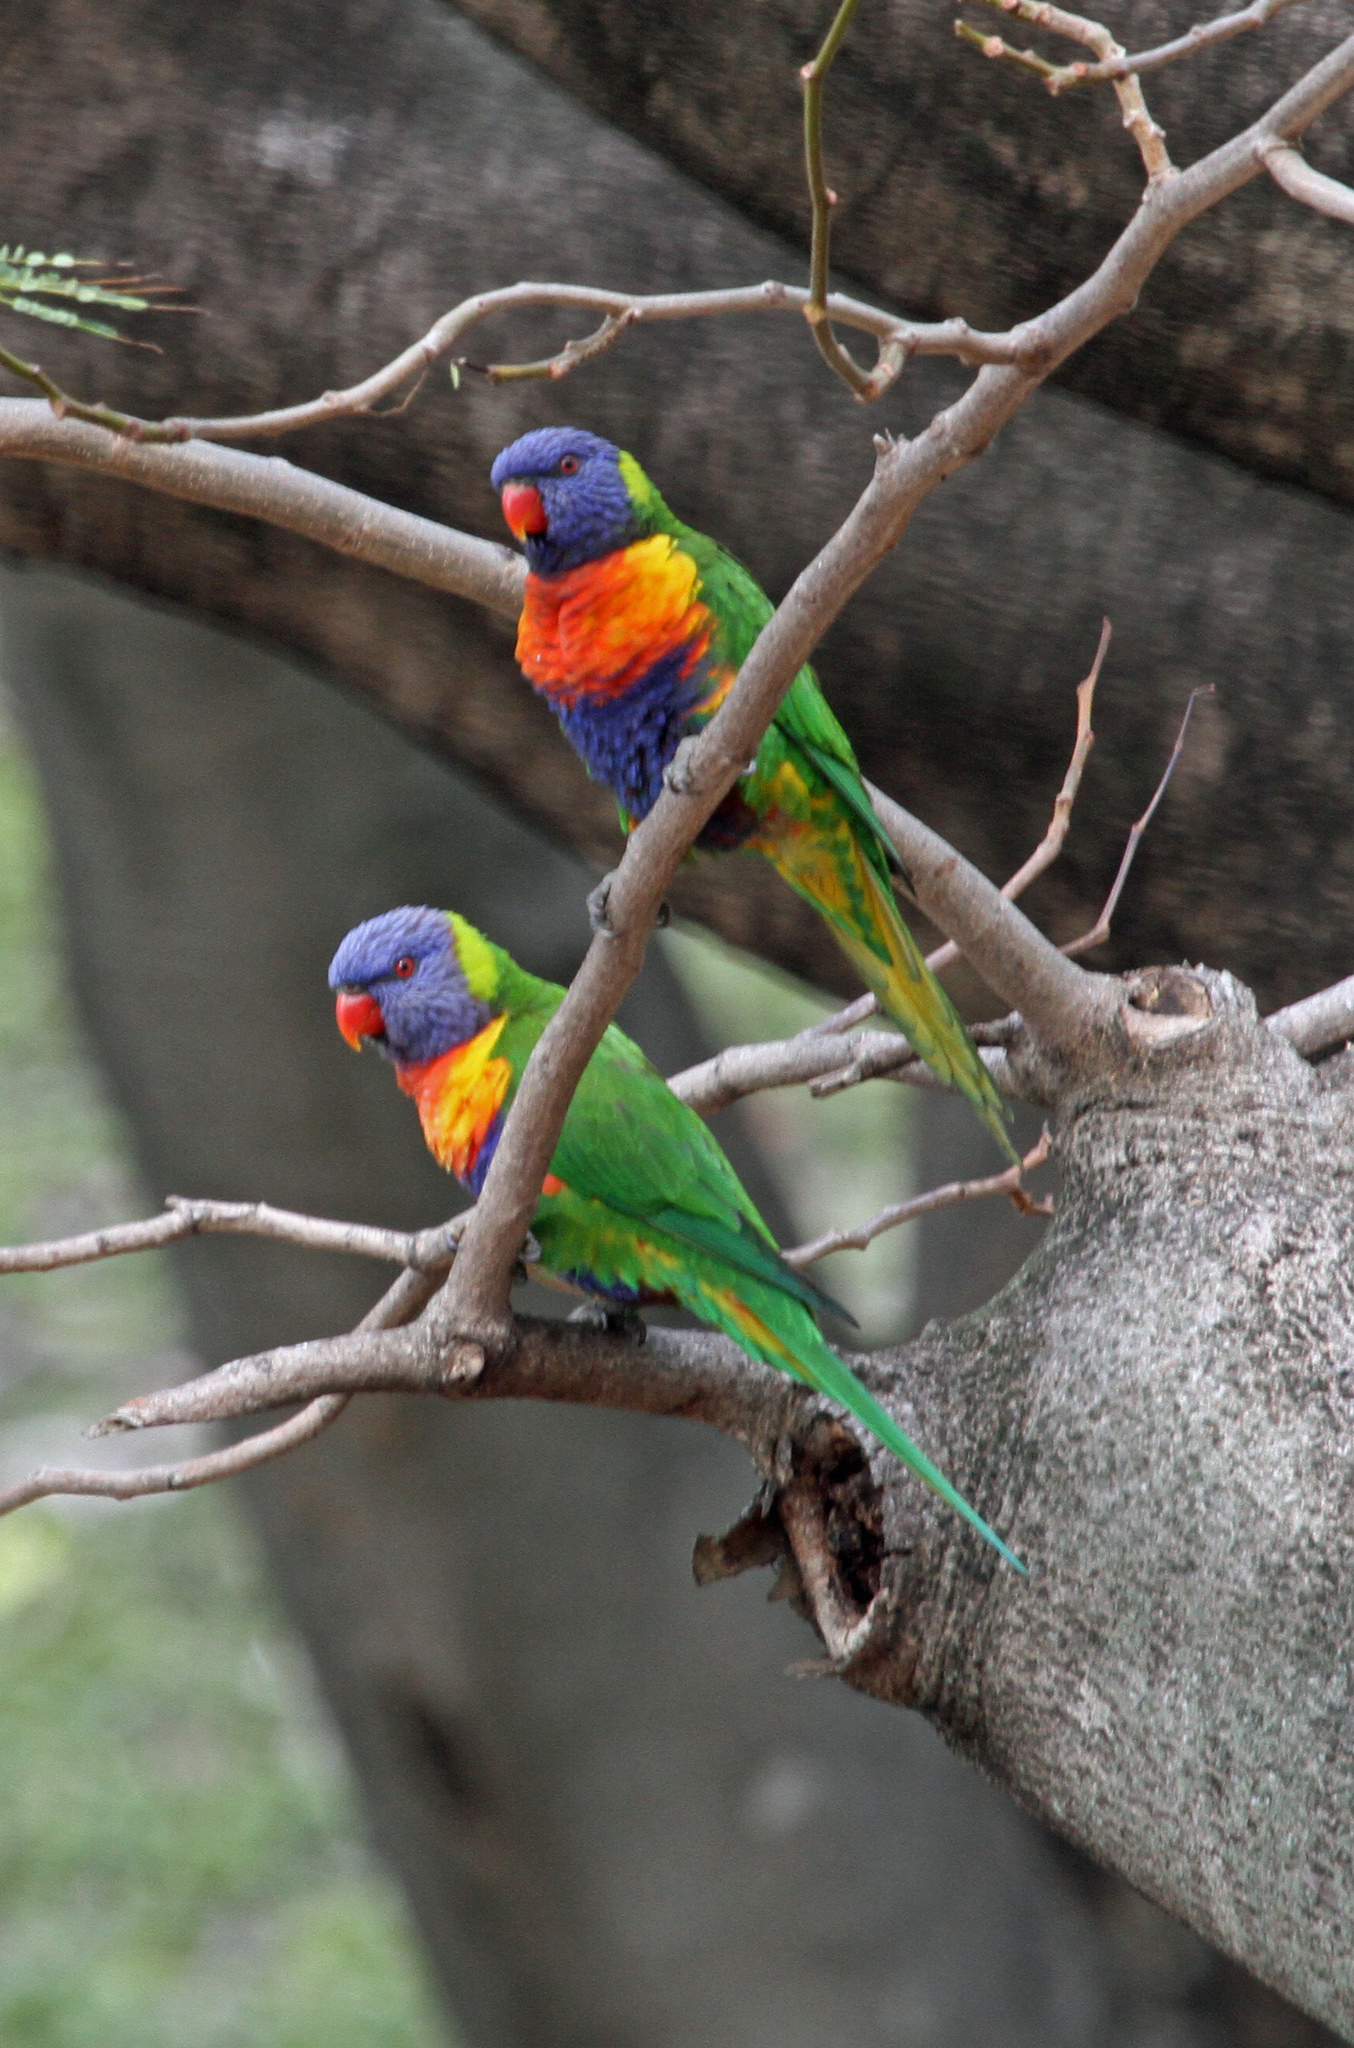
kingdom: Animalia
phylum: Chordata
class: Aves
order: Psittaciformes
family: Psittacidae
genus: Trichoglossus
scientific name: Trichoglossus haematodus
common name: Coconut lorikeet
